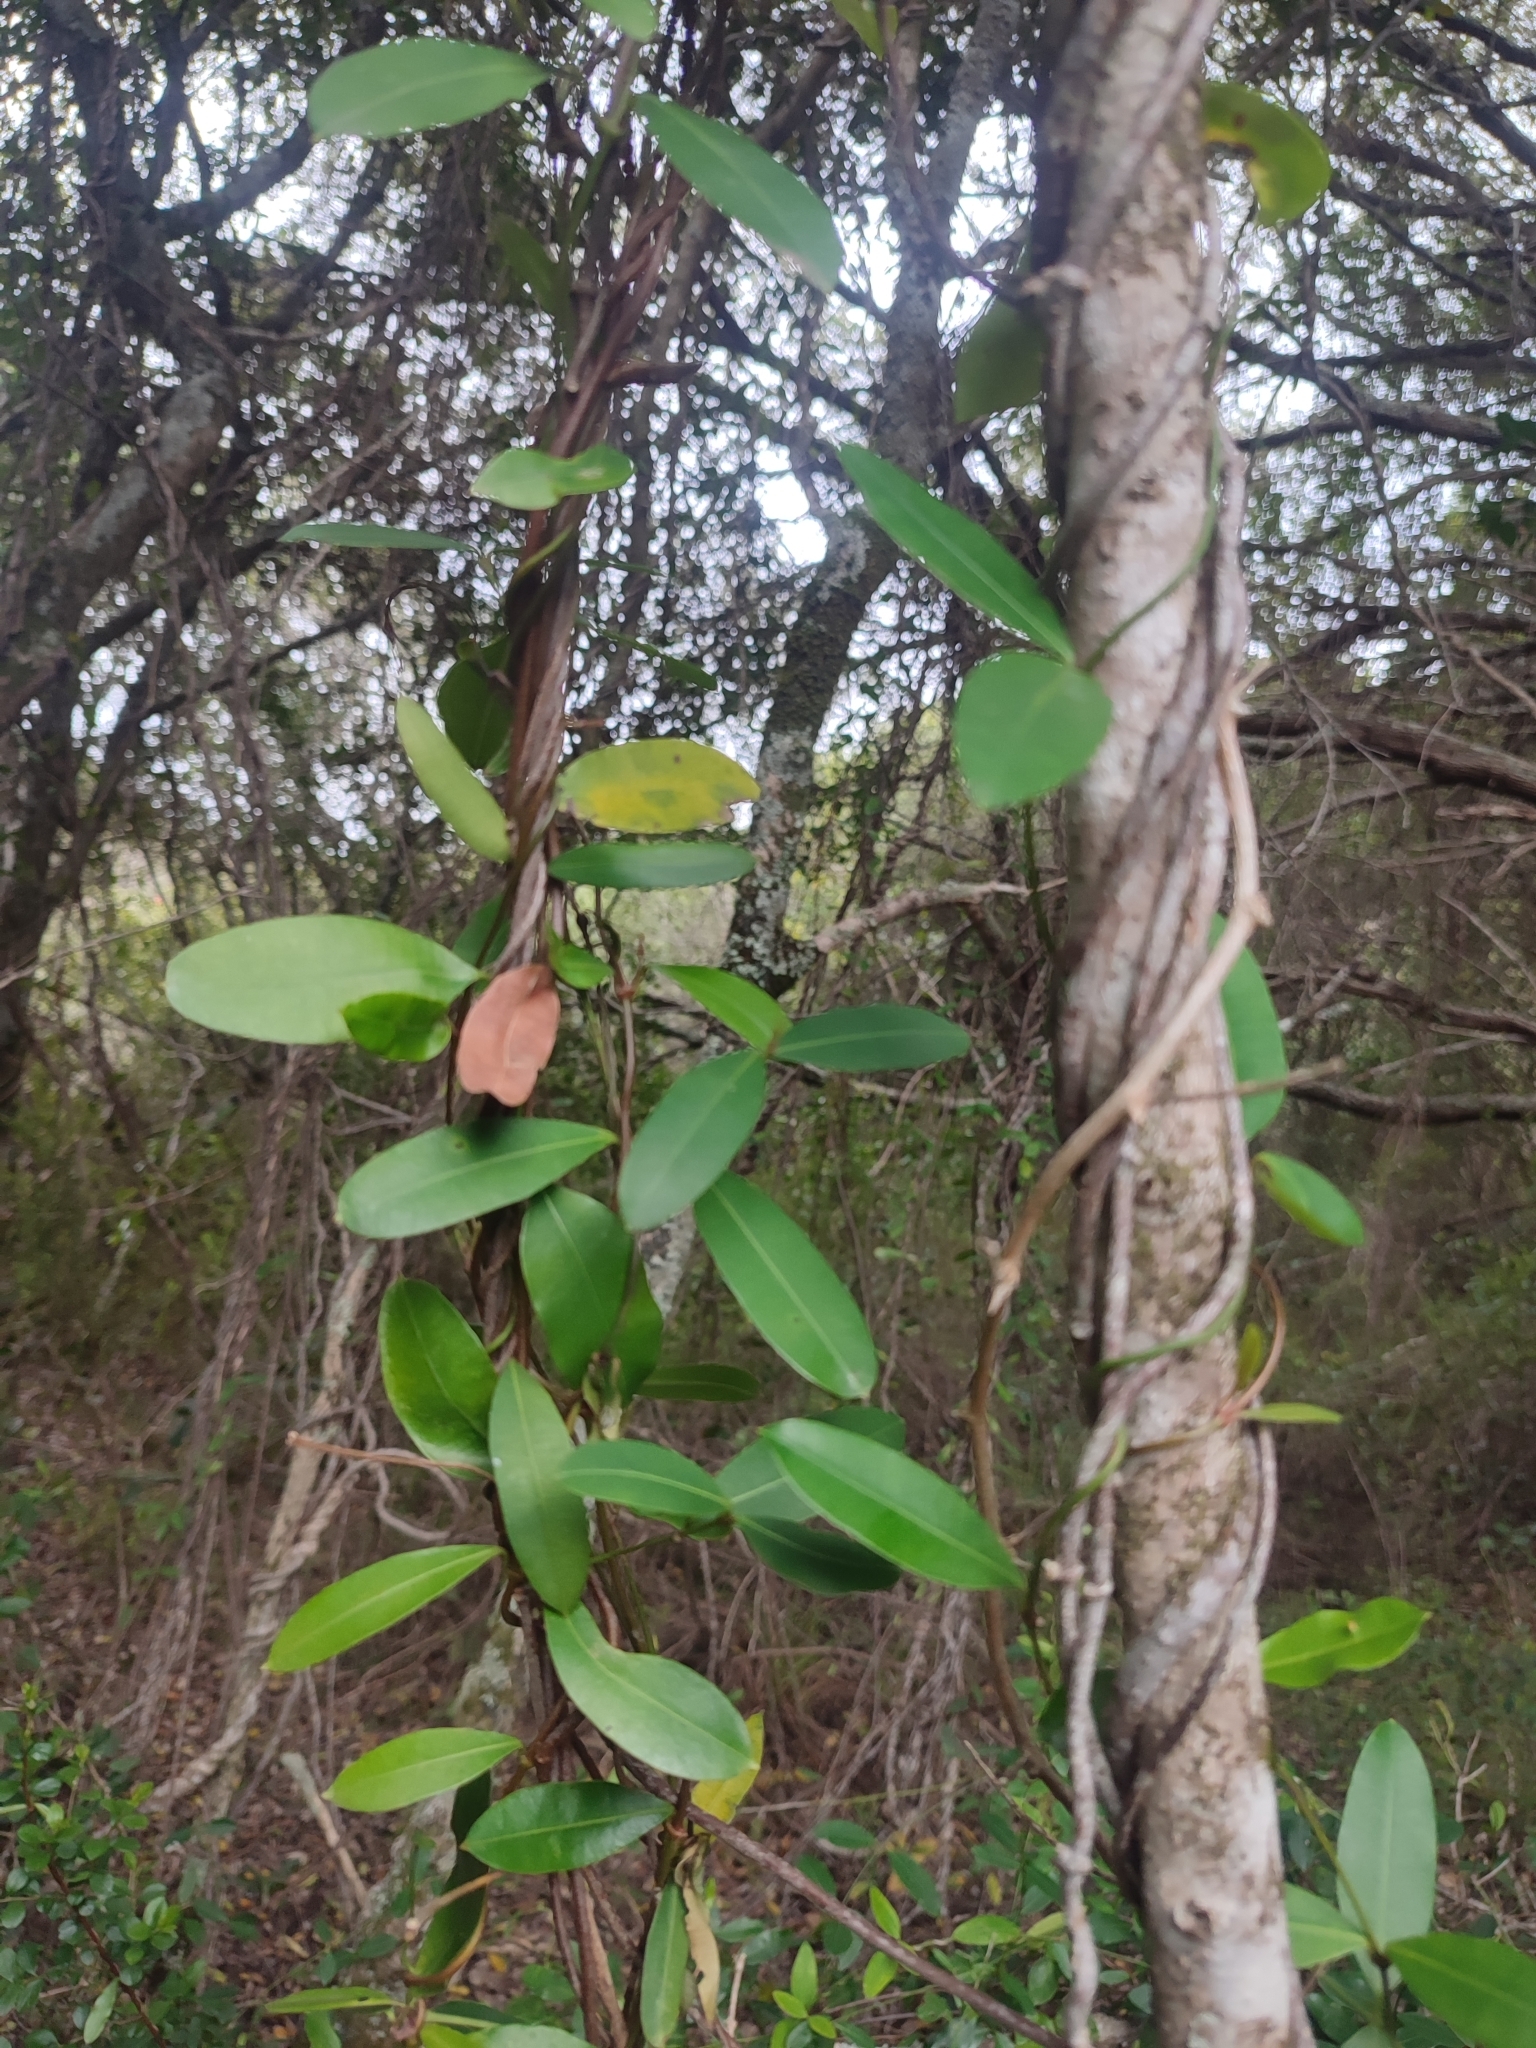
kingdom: Plantae
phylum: Tracheophyta
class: Magnoliopsida
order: Gentianales
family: Apocynaceae
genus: Secamone
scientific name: Secamone alpini
